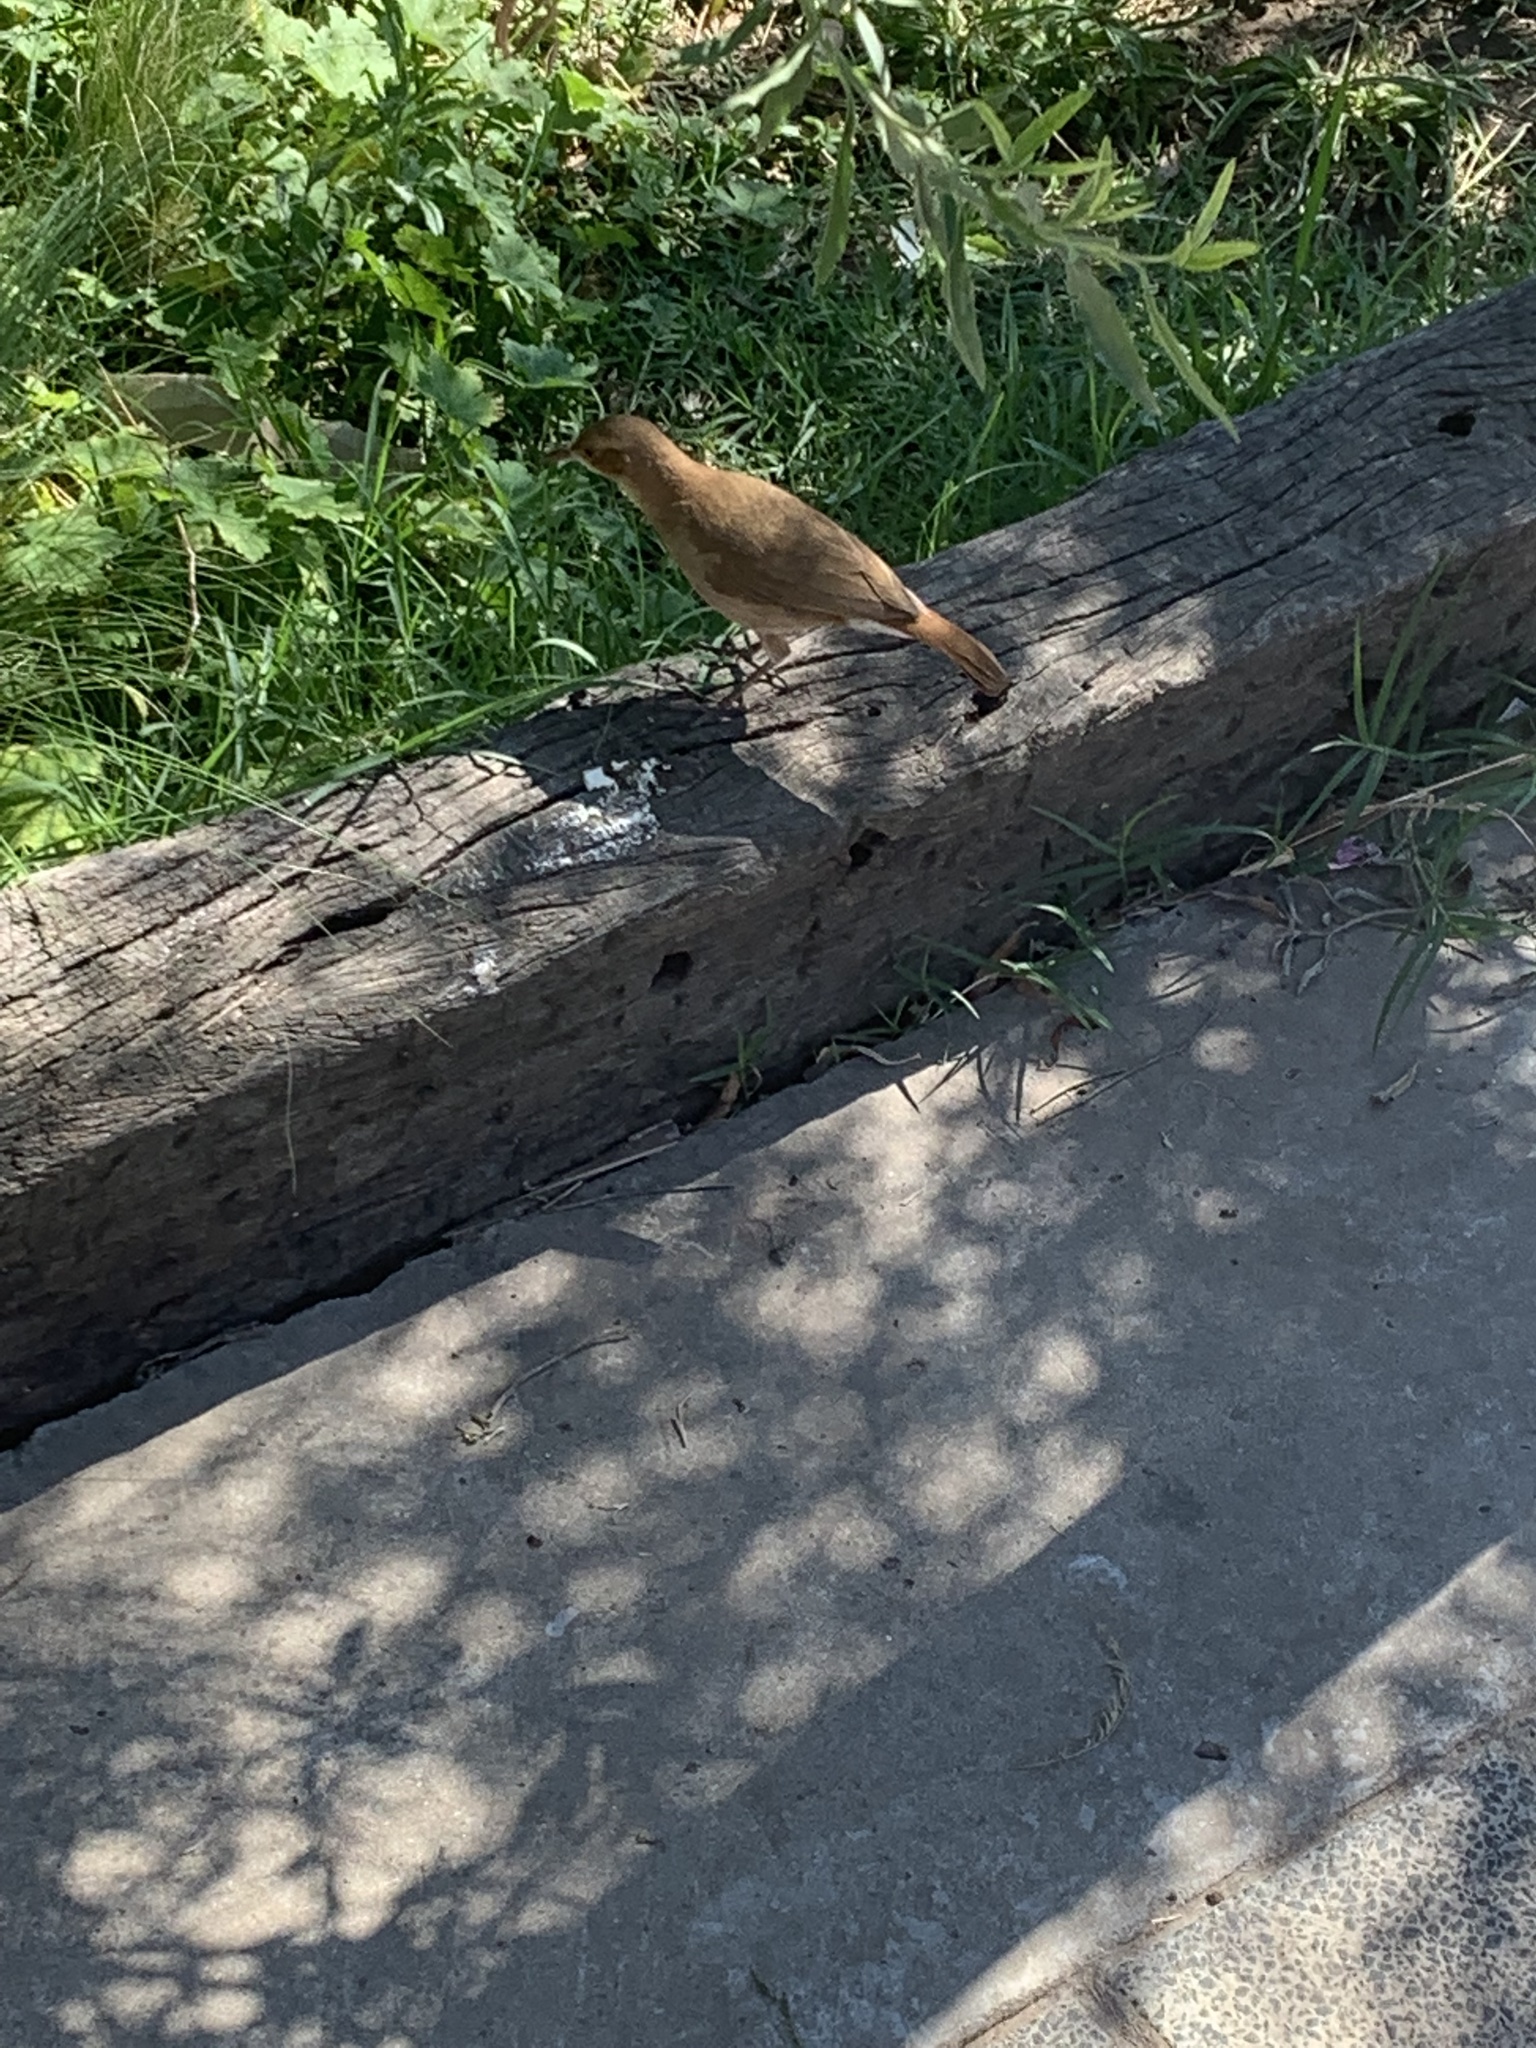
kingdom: Animalia
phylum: Chordata
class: Aves
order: Passeriformes
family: Furnariidae
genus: Furnarius
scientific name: Furnarius rufus
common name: Rufous hornero
